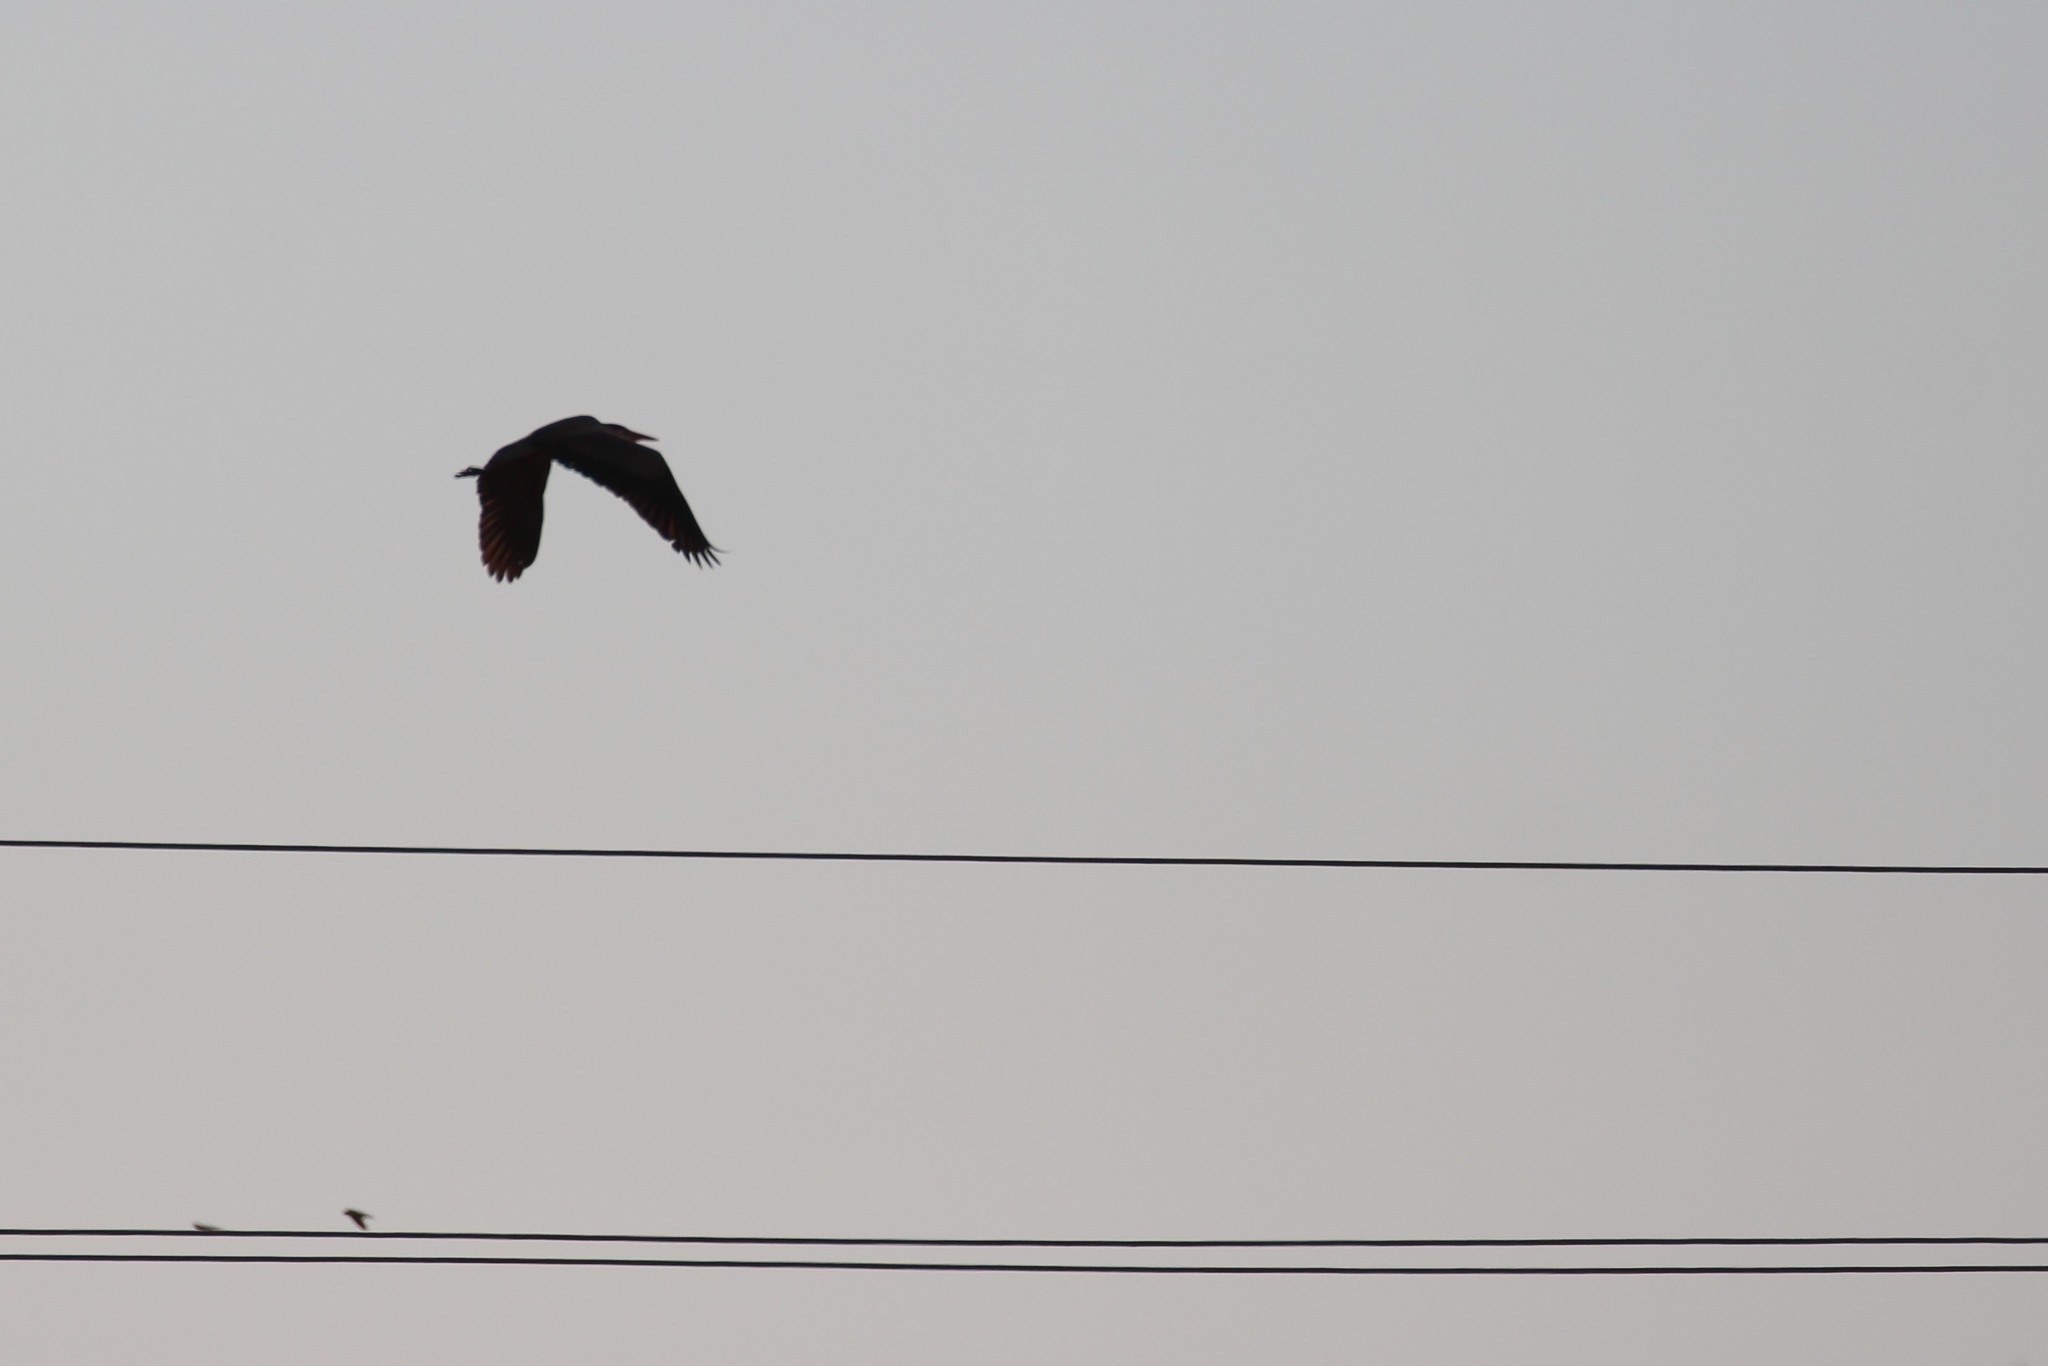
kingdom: Animalia
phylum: Chordata
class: Aves
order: Pelecaniformes
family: Ardeidae
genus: Ardea
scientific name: Ardea herodias
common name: Great blue heron
